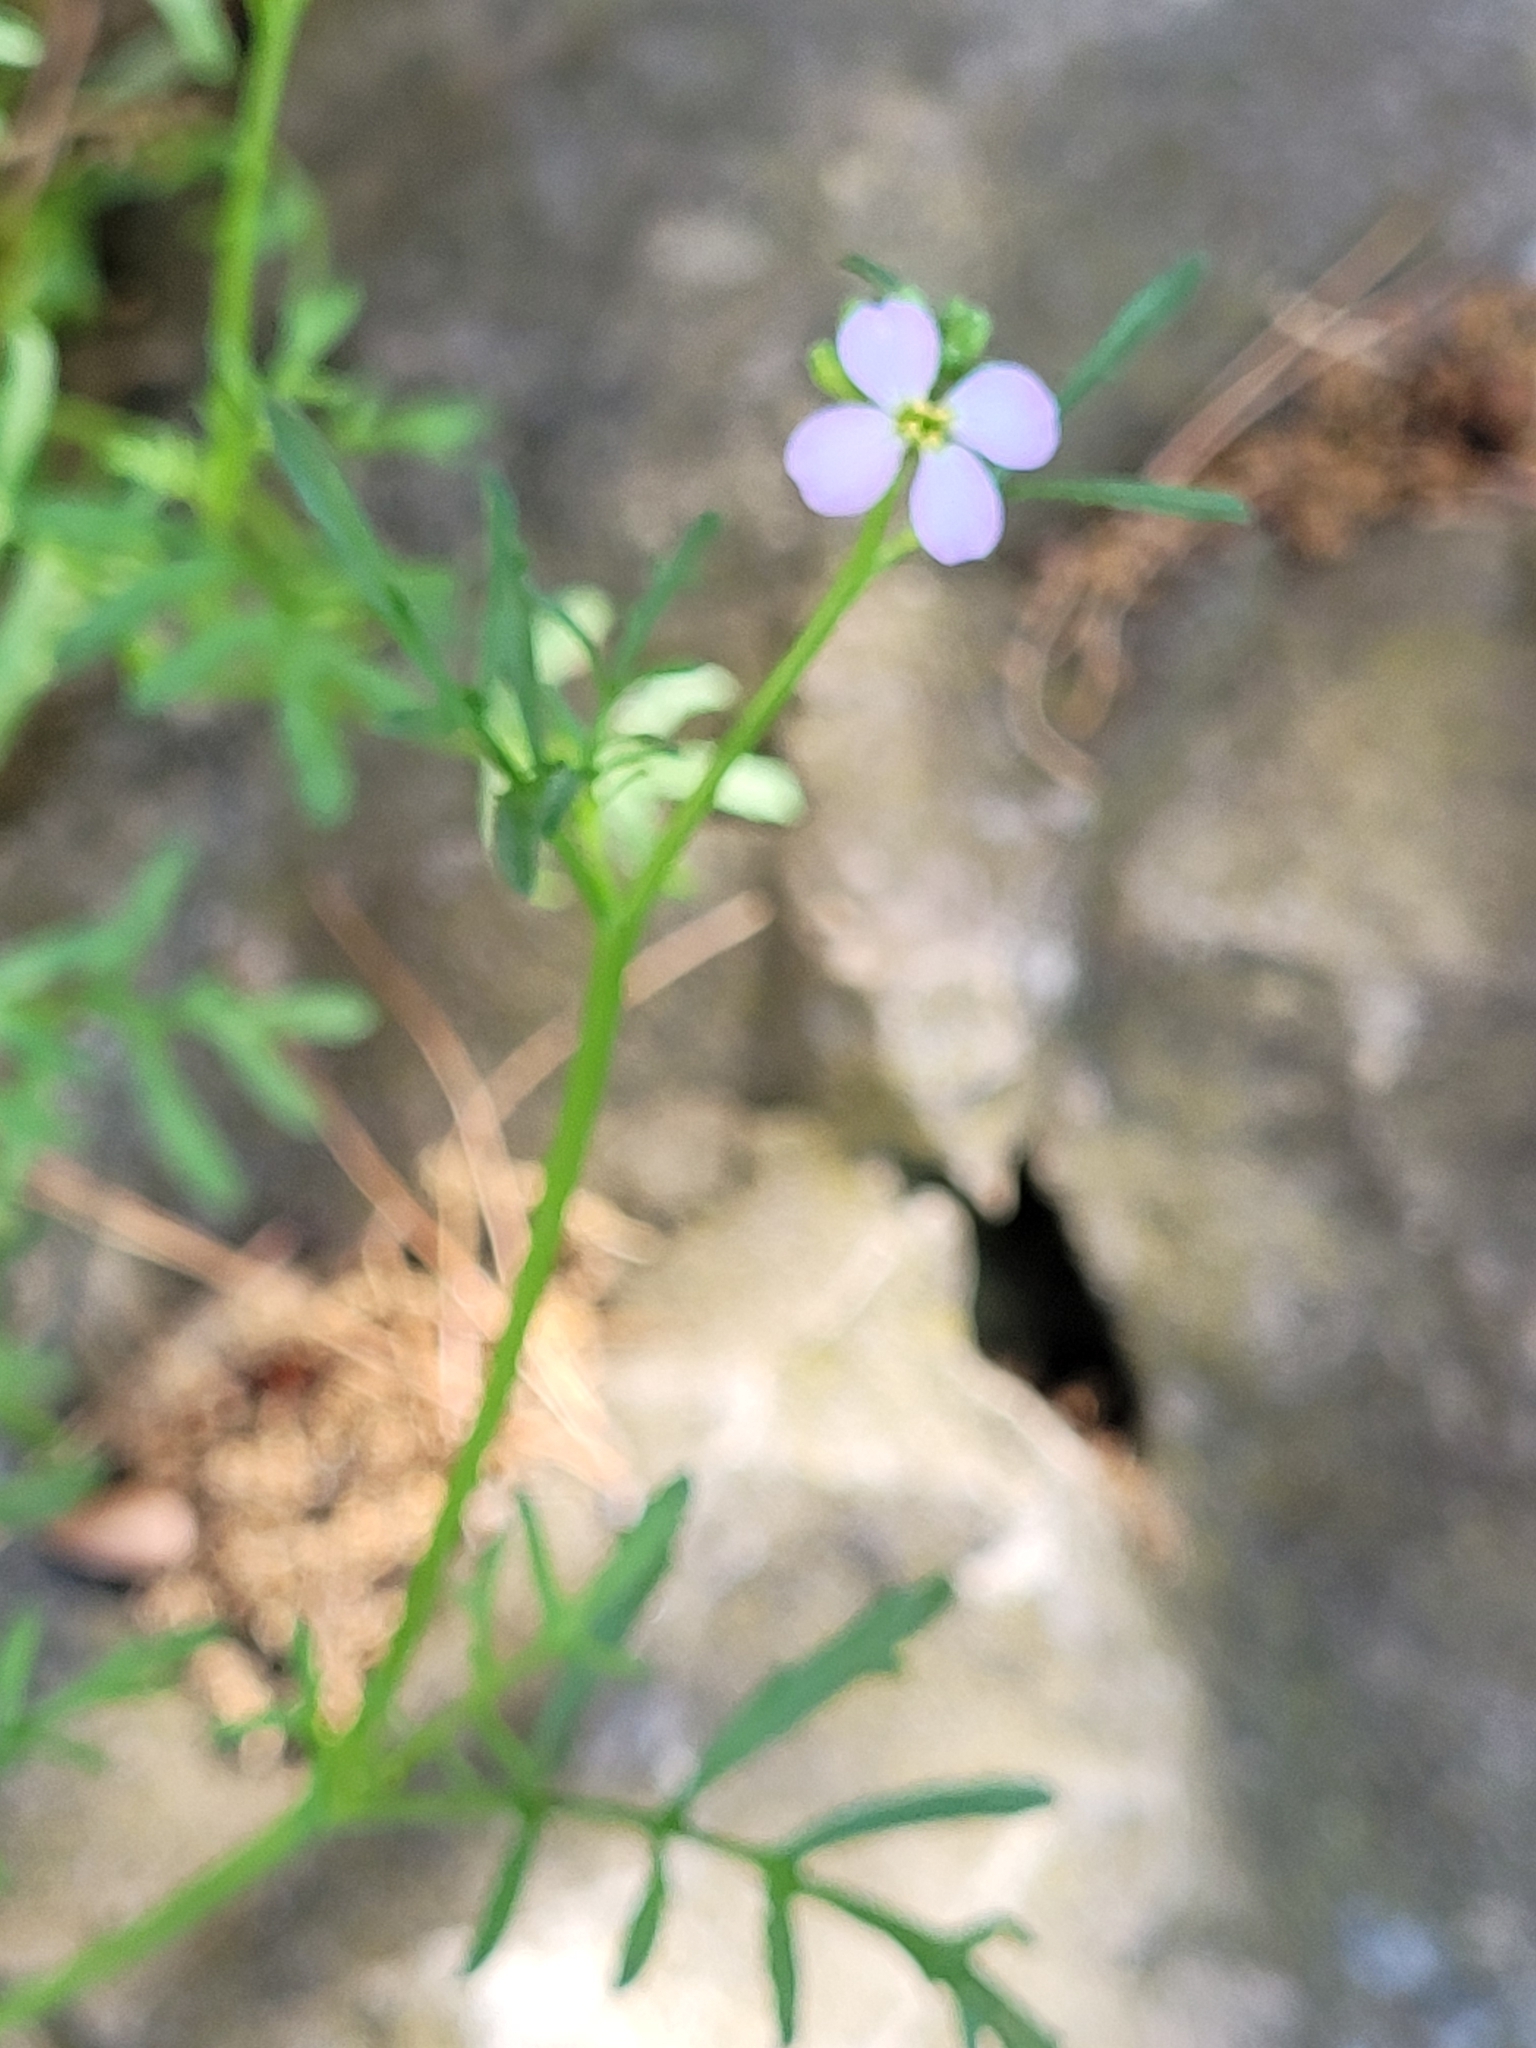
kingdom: Plantae
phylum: Tracheophyta
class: Magnoliopsida
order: Brassicales
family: Brassicaceae
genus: Cakile
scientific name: Cakile maritima
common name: Sea rocket
